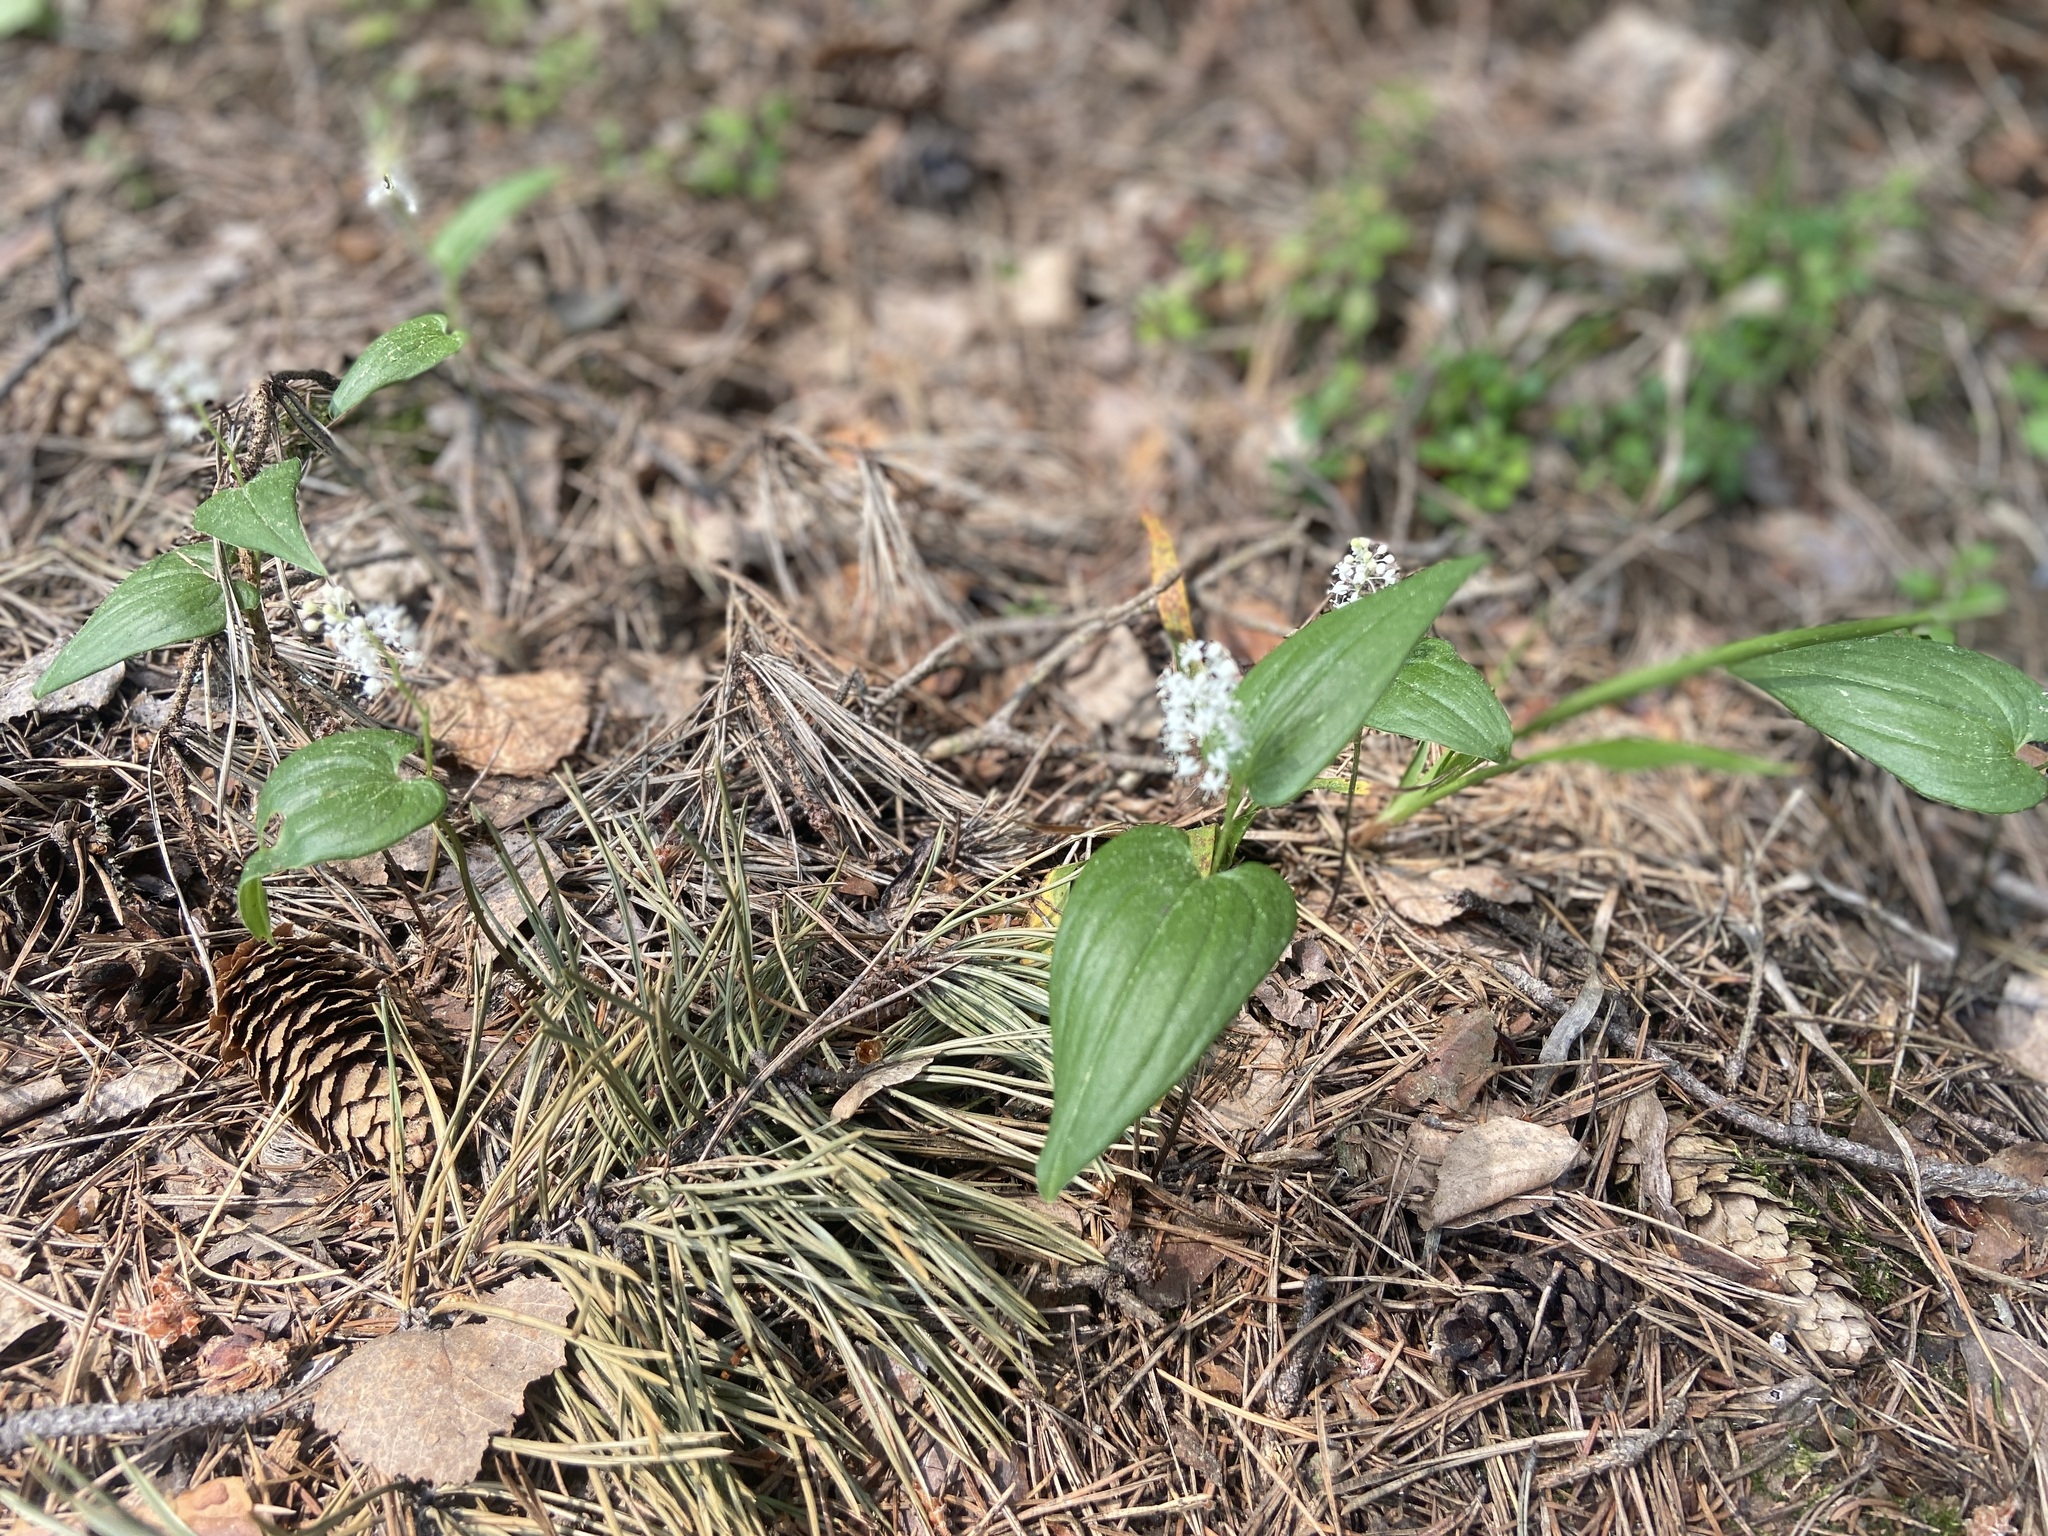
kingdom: Plantae
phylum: Tracheophyta
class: Liliopsida
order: Asparagales
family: Asparagaceae
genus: Maianthemum
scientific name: Maianthemum bifolium
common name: May lily
